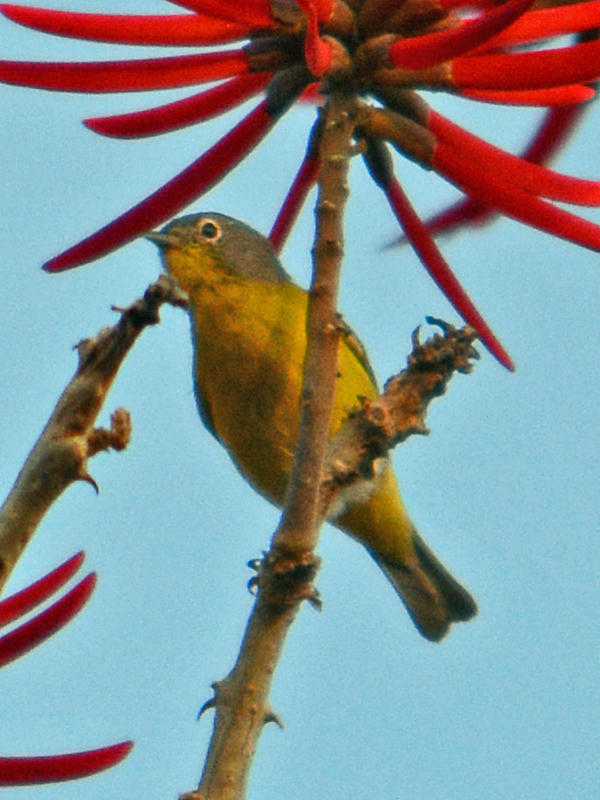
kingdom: Animalia
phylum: Chordata
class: Aves
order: Passeriformes
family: Parulidae
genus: Leiothlypis
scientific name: Leiothlypis ruficapilla
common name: Nashville warbler
